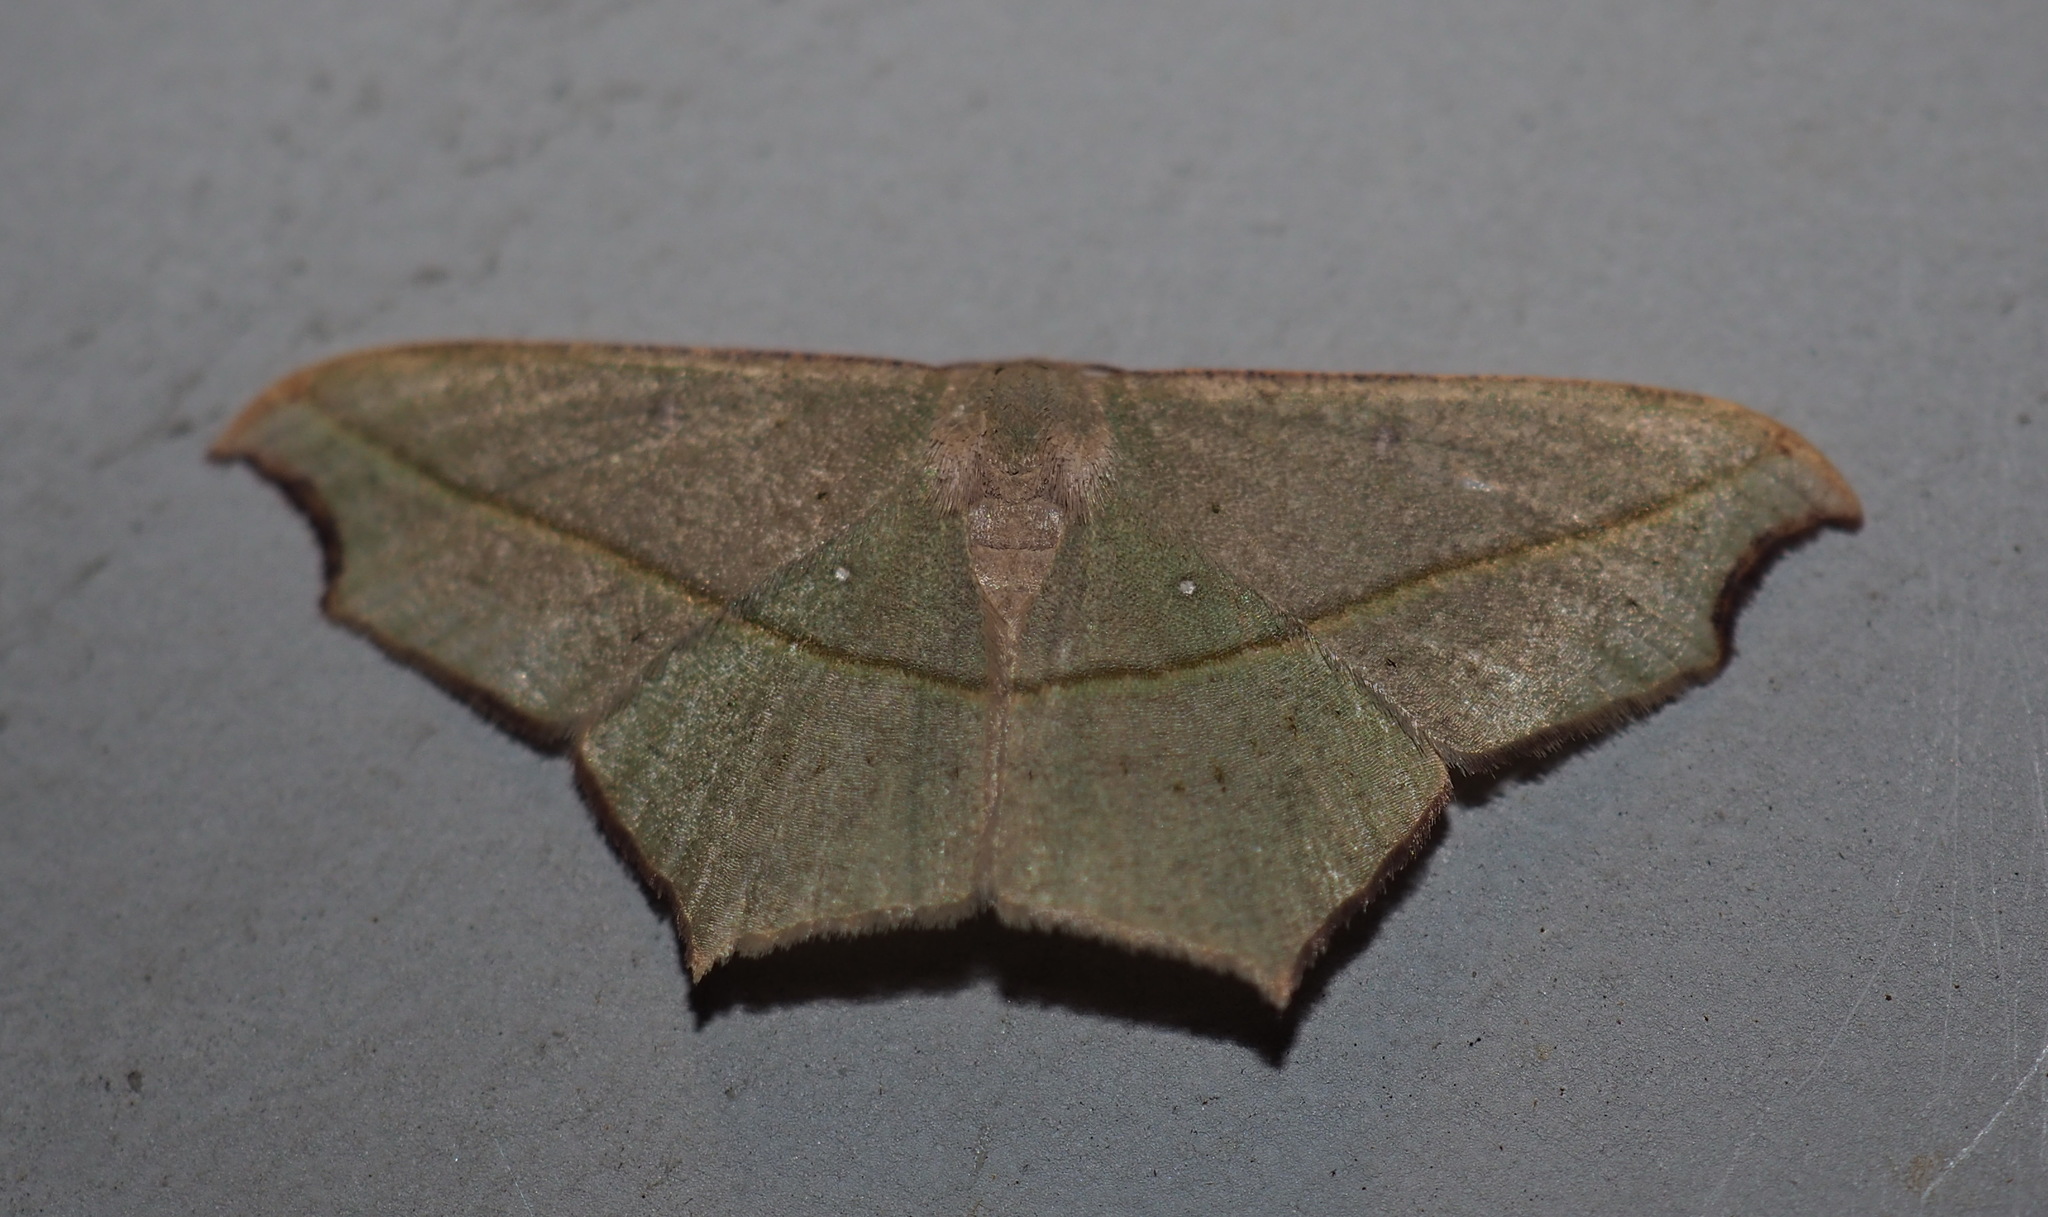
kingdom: Animalia
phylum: Arthropoda
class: Insecta
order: Lepidoptera
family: Geometridae
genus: Traminda
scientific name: Traminda aventiaria
